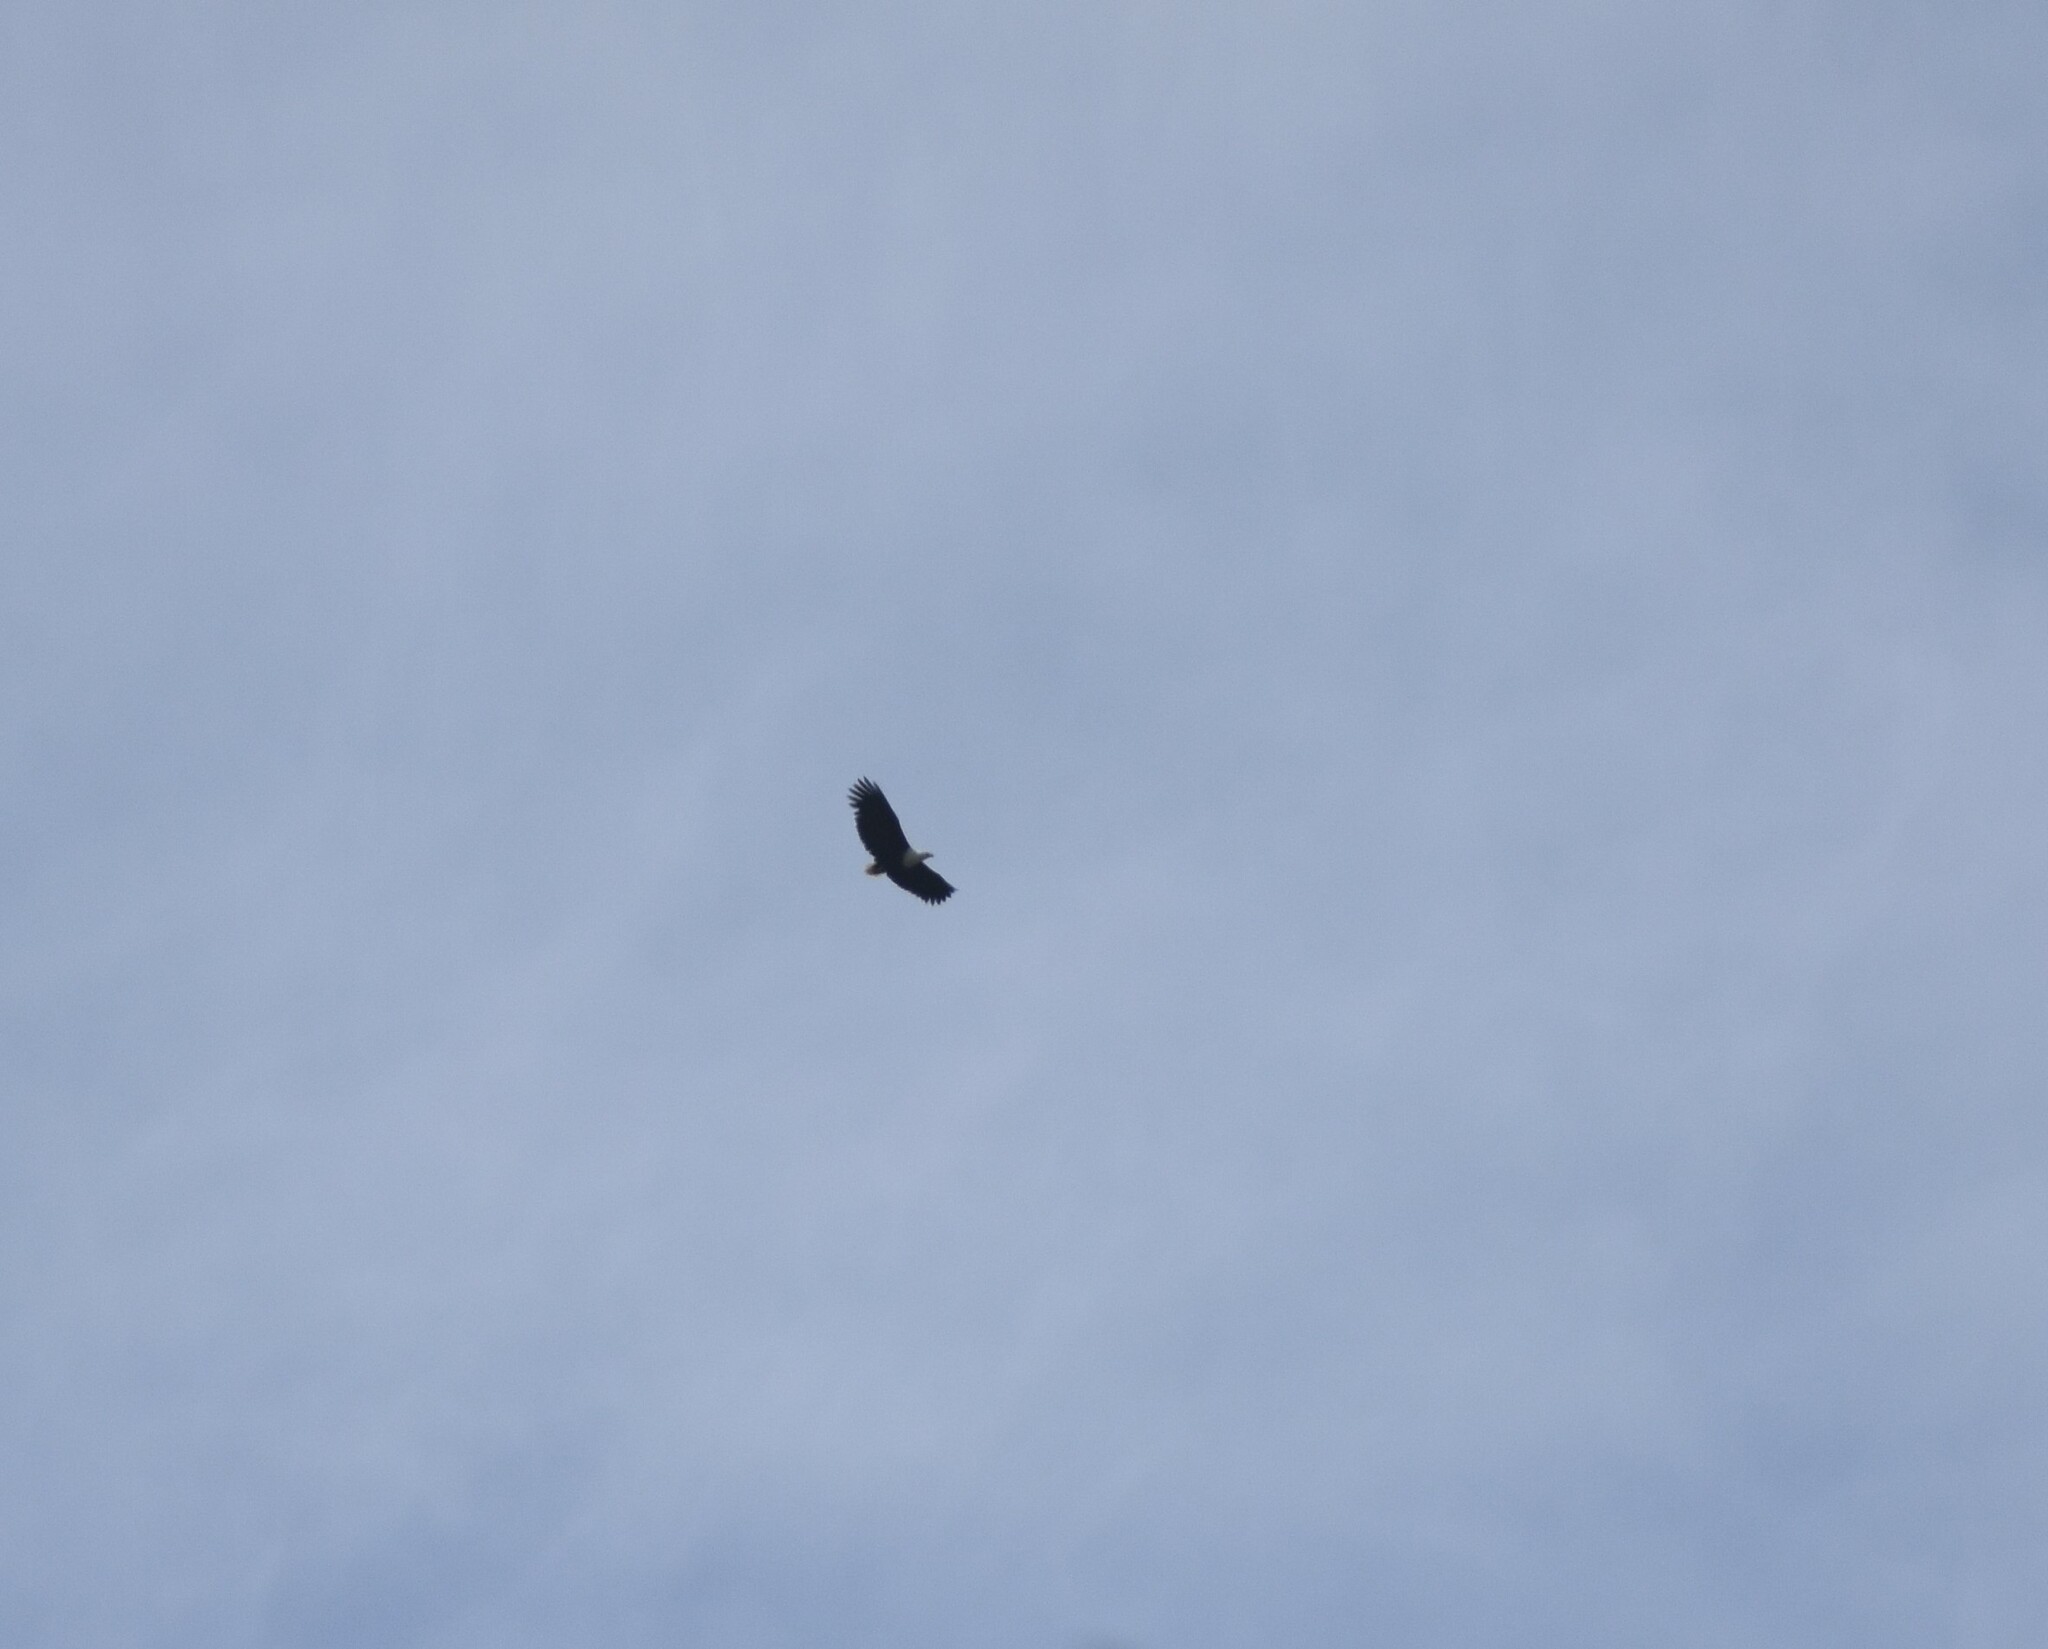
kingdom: Animalia
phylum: Chordata
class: Aves
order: Accipitriformes
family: Accipitridae
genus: Haliaeetus
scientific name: Haliaeetus vocifer
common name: African fish eagle
